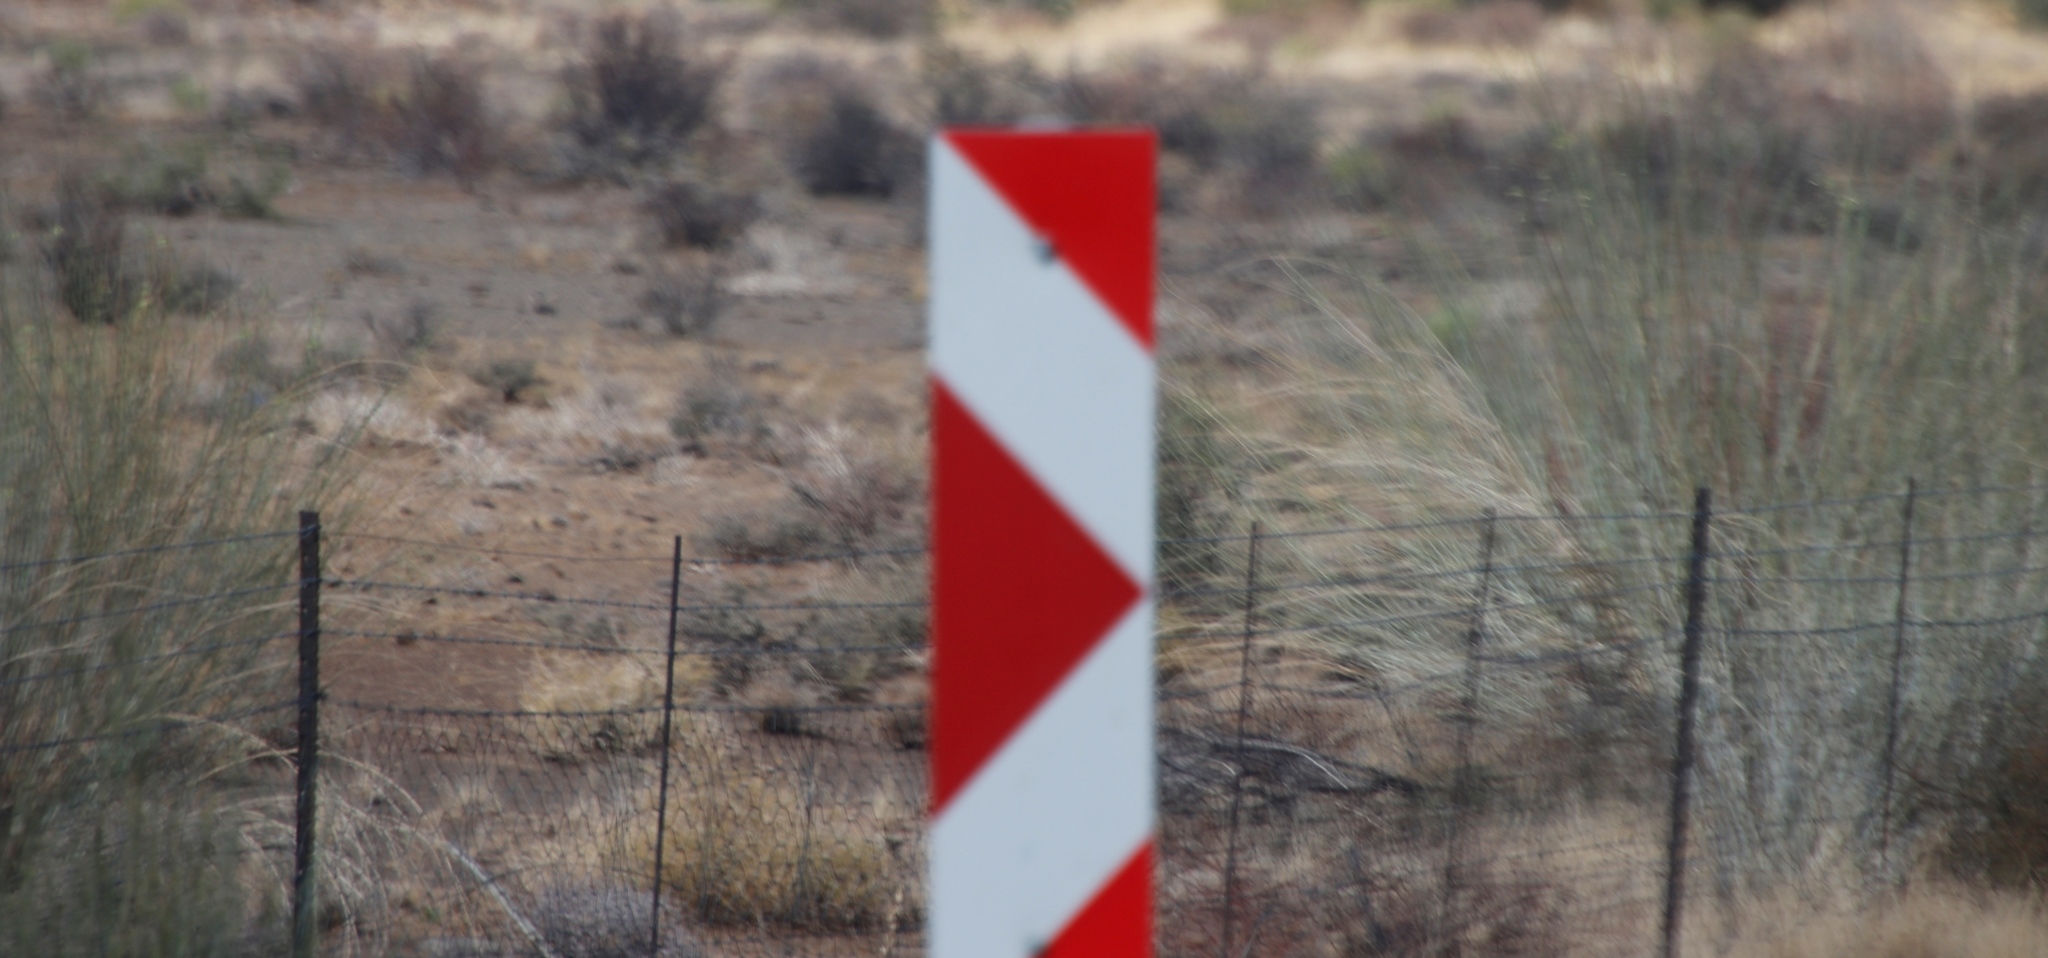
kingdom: Plantae
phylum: Tracheophyta
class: Magnoliopsida
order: Gentianales
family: Apocynaceae
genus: Gomphocarpus
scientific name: Gomphocarpus filiformis
